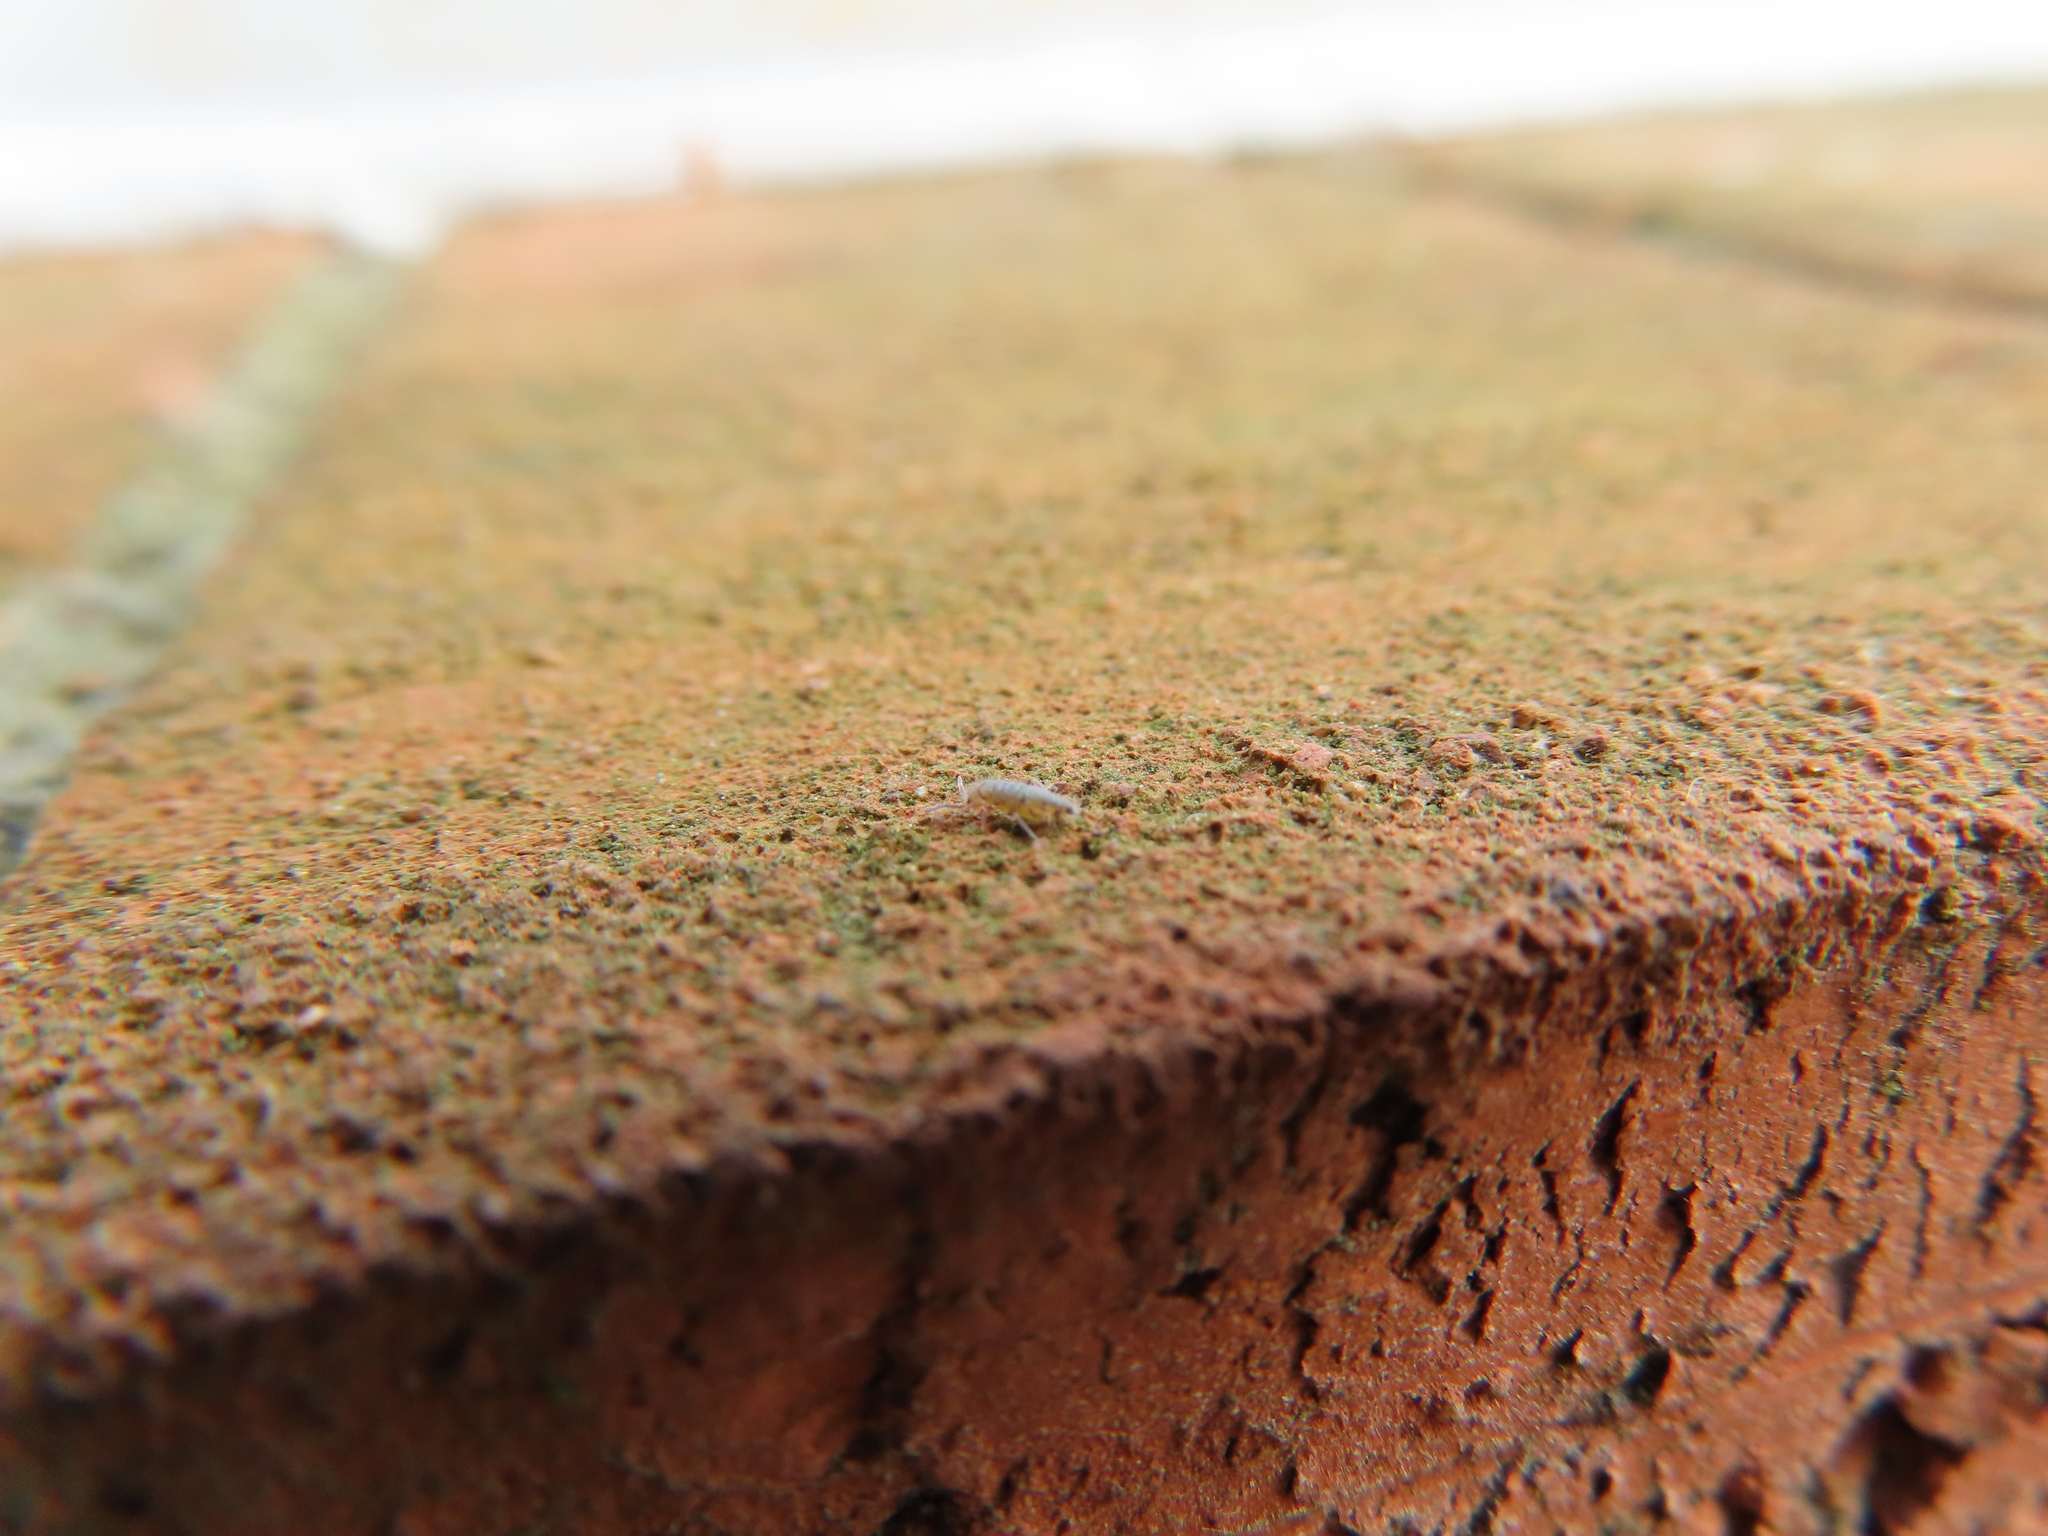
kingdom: Animalia
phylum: Arthropoda
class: Collembola
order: Entomobryomorpha
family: Entomobryidae
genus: Willowsia
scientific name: Willowsia nigromaculata
